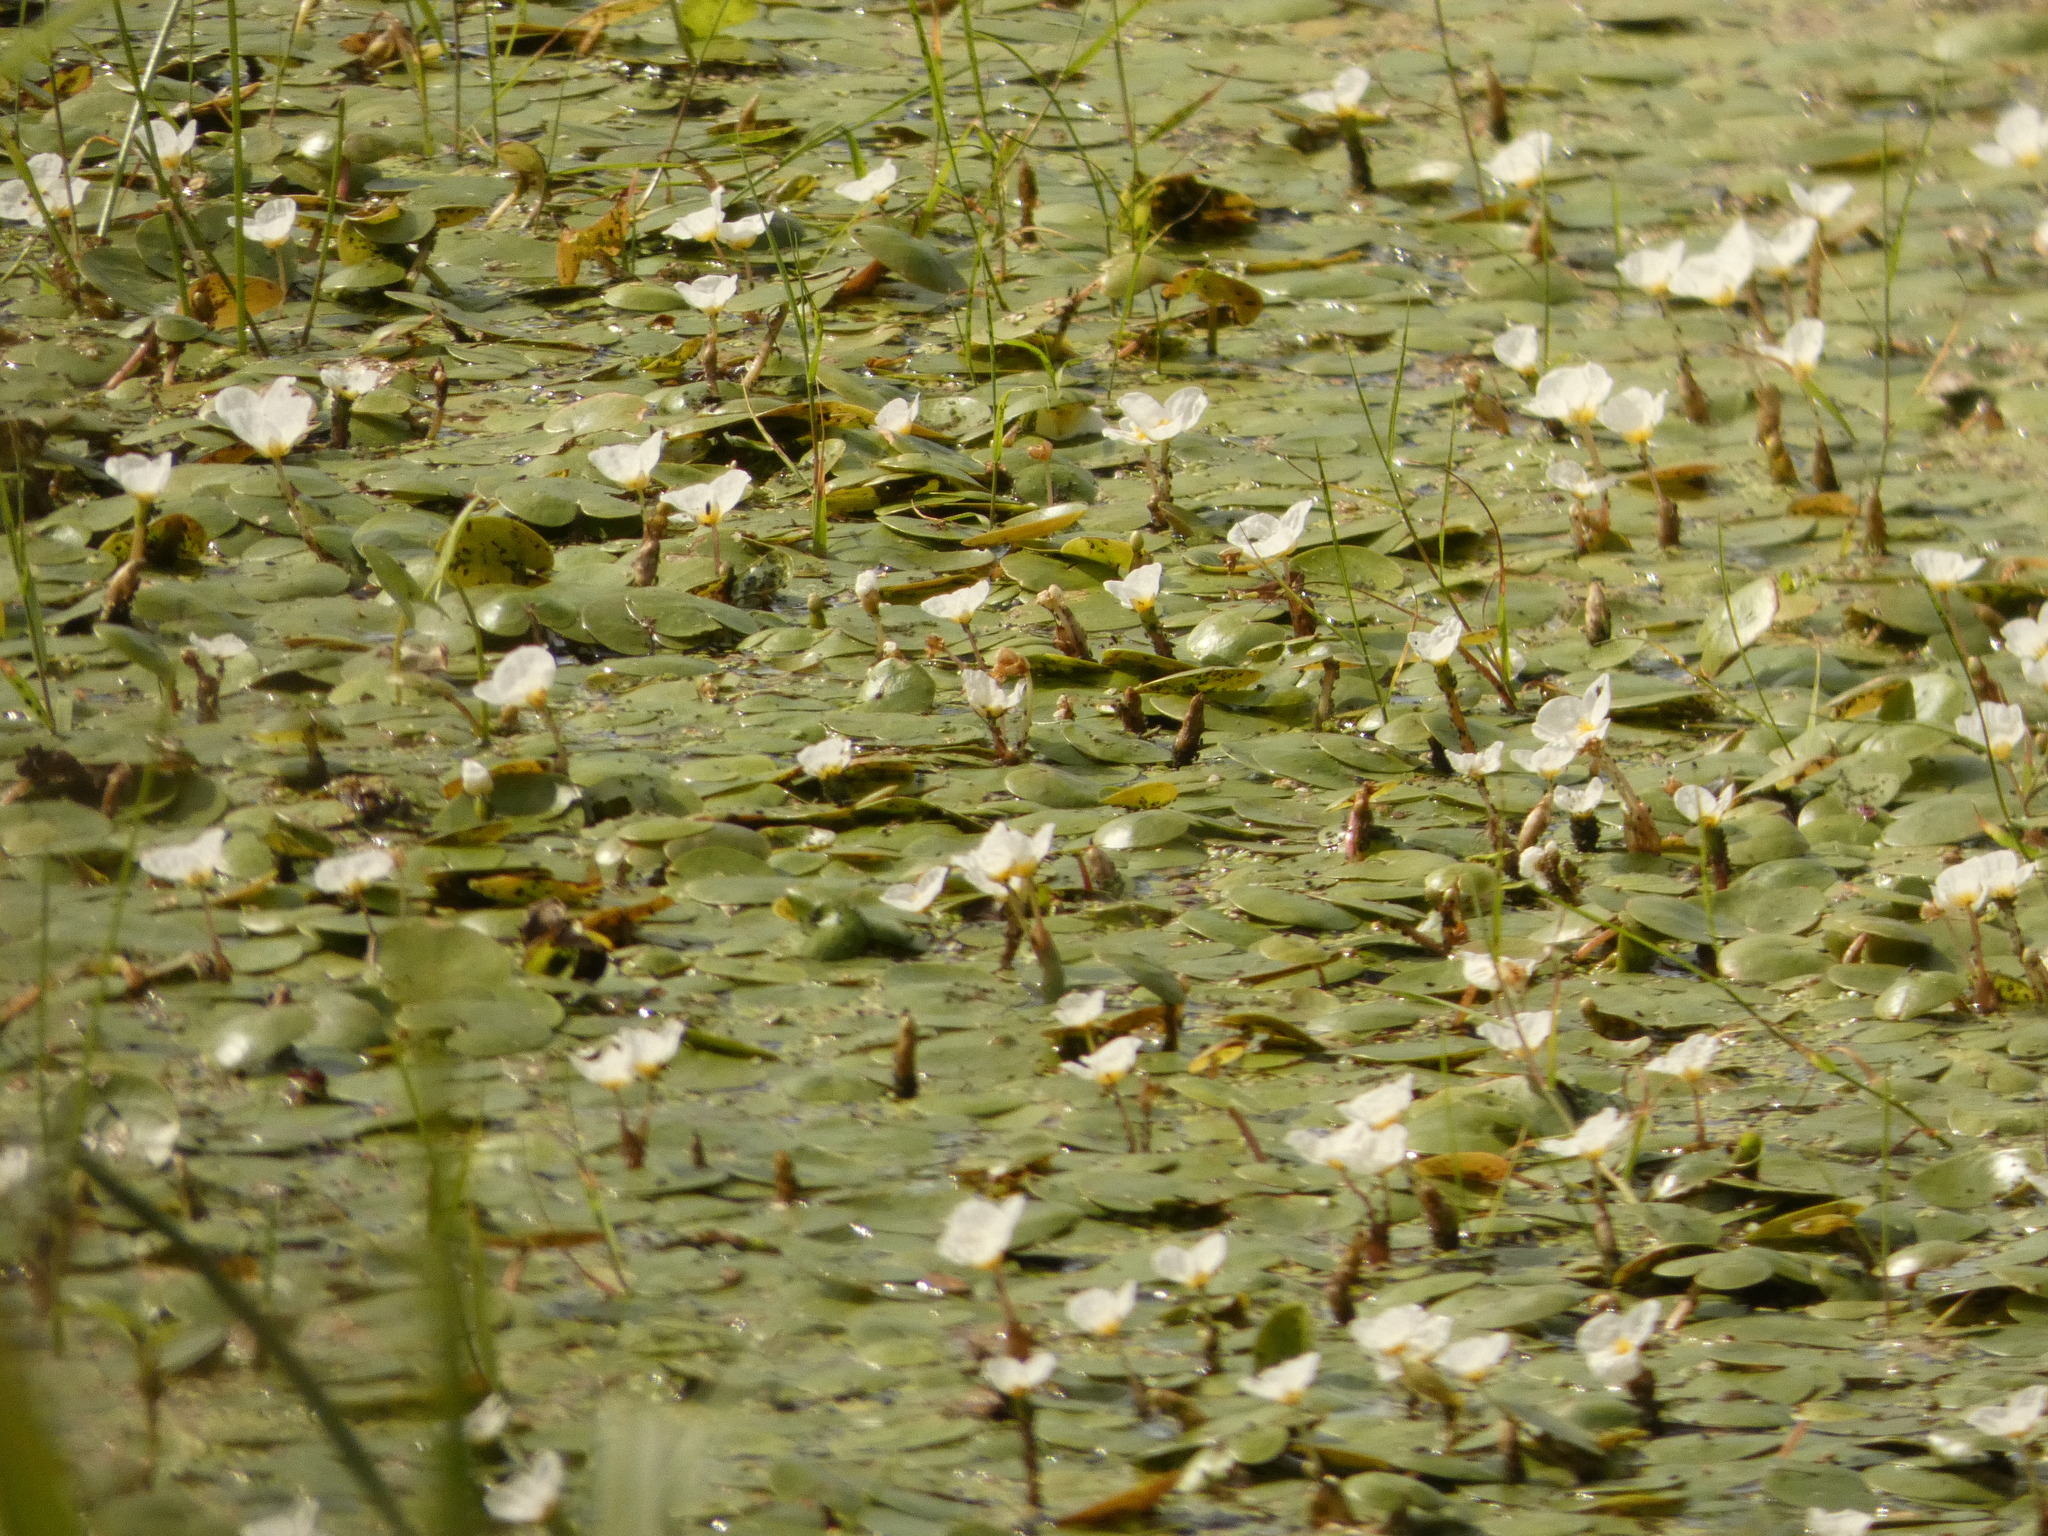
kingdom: Plantae
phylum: Tracheophyta
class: Liliopsida
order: Alismatales
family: Hydrocharitaceae
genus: Hydrocharis
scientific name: Hydrocharis morsus-ranae
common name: Frogbit
